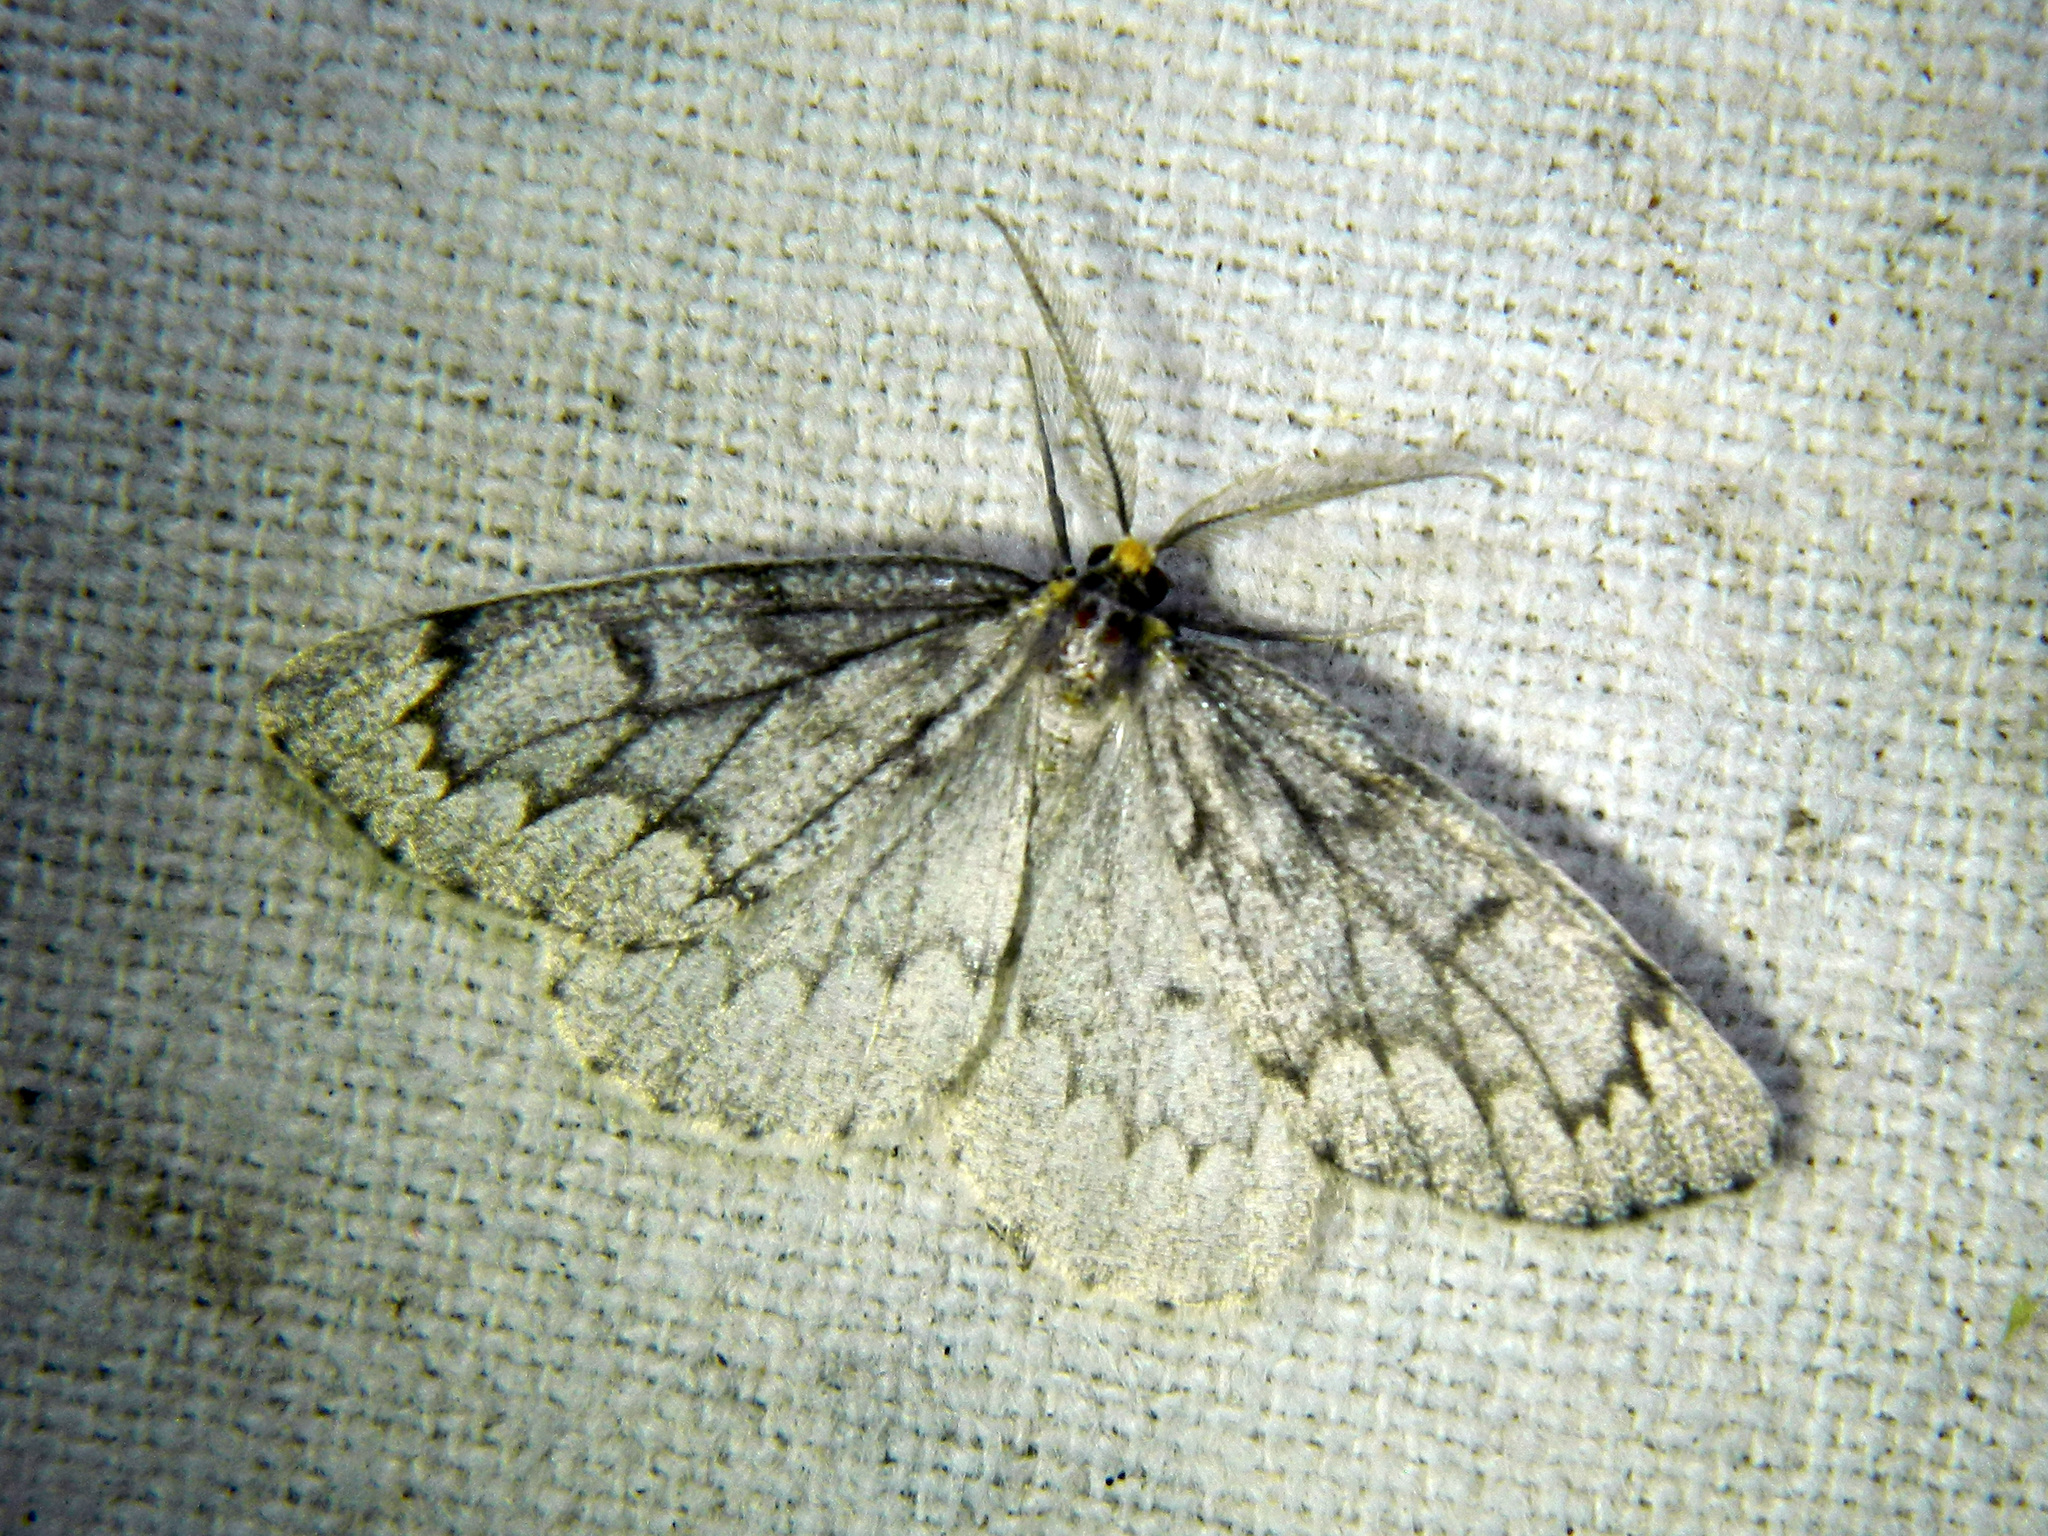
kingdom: Animalia
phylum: Arthropoda
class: Insecta
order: Lepidoptera
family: Geometridae
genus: Nepytia
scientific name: Nepytia canosaria
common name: False hemlock looper
